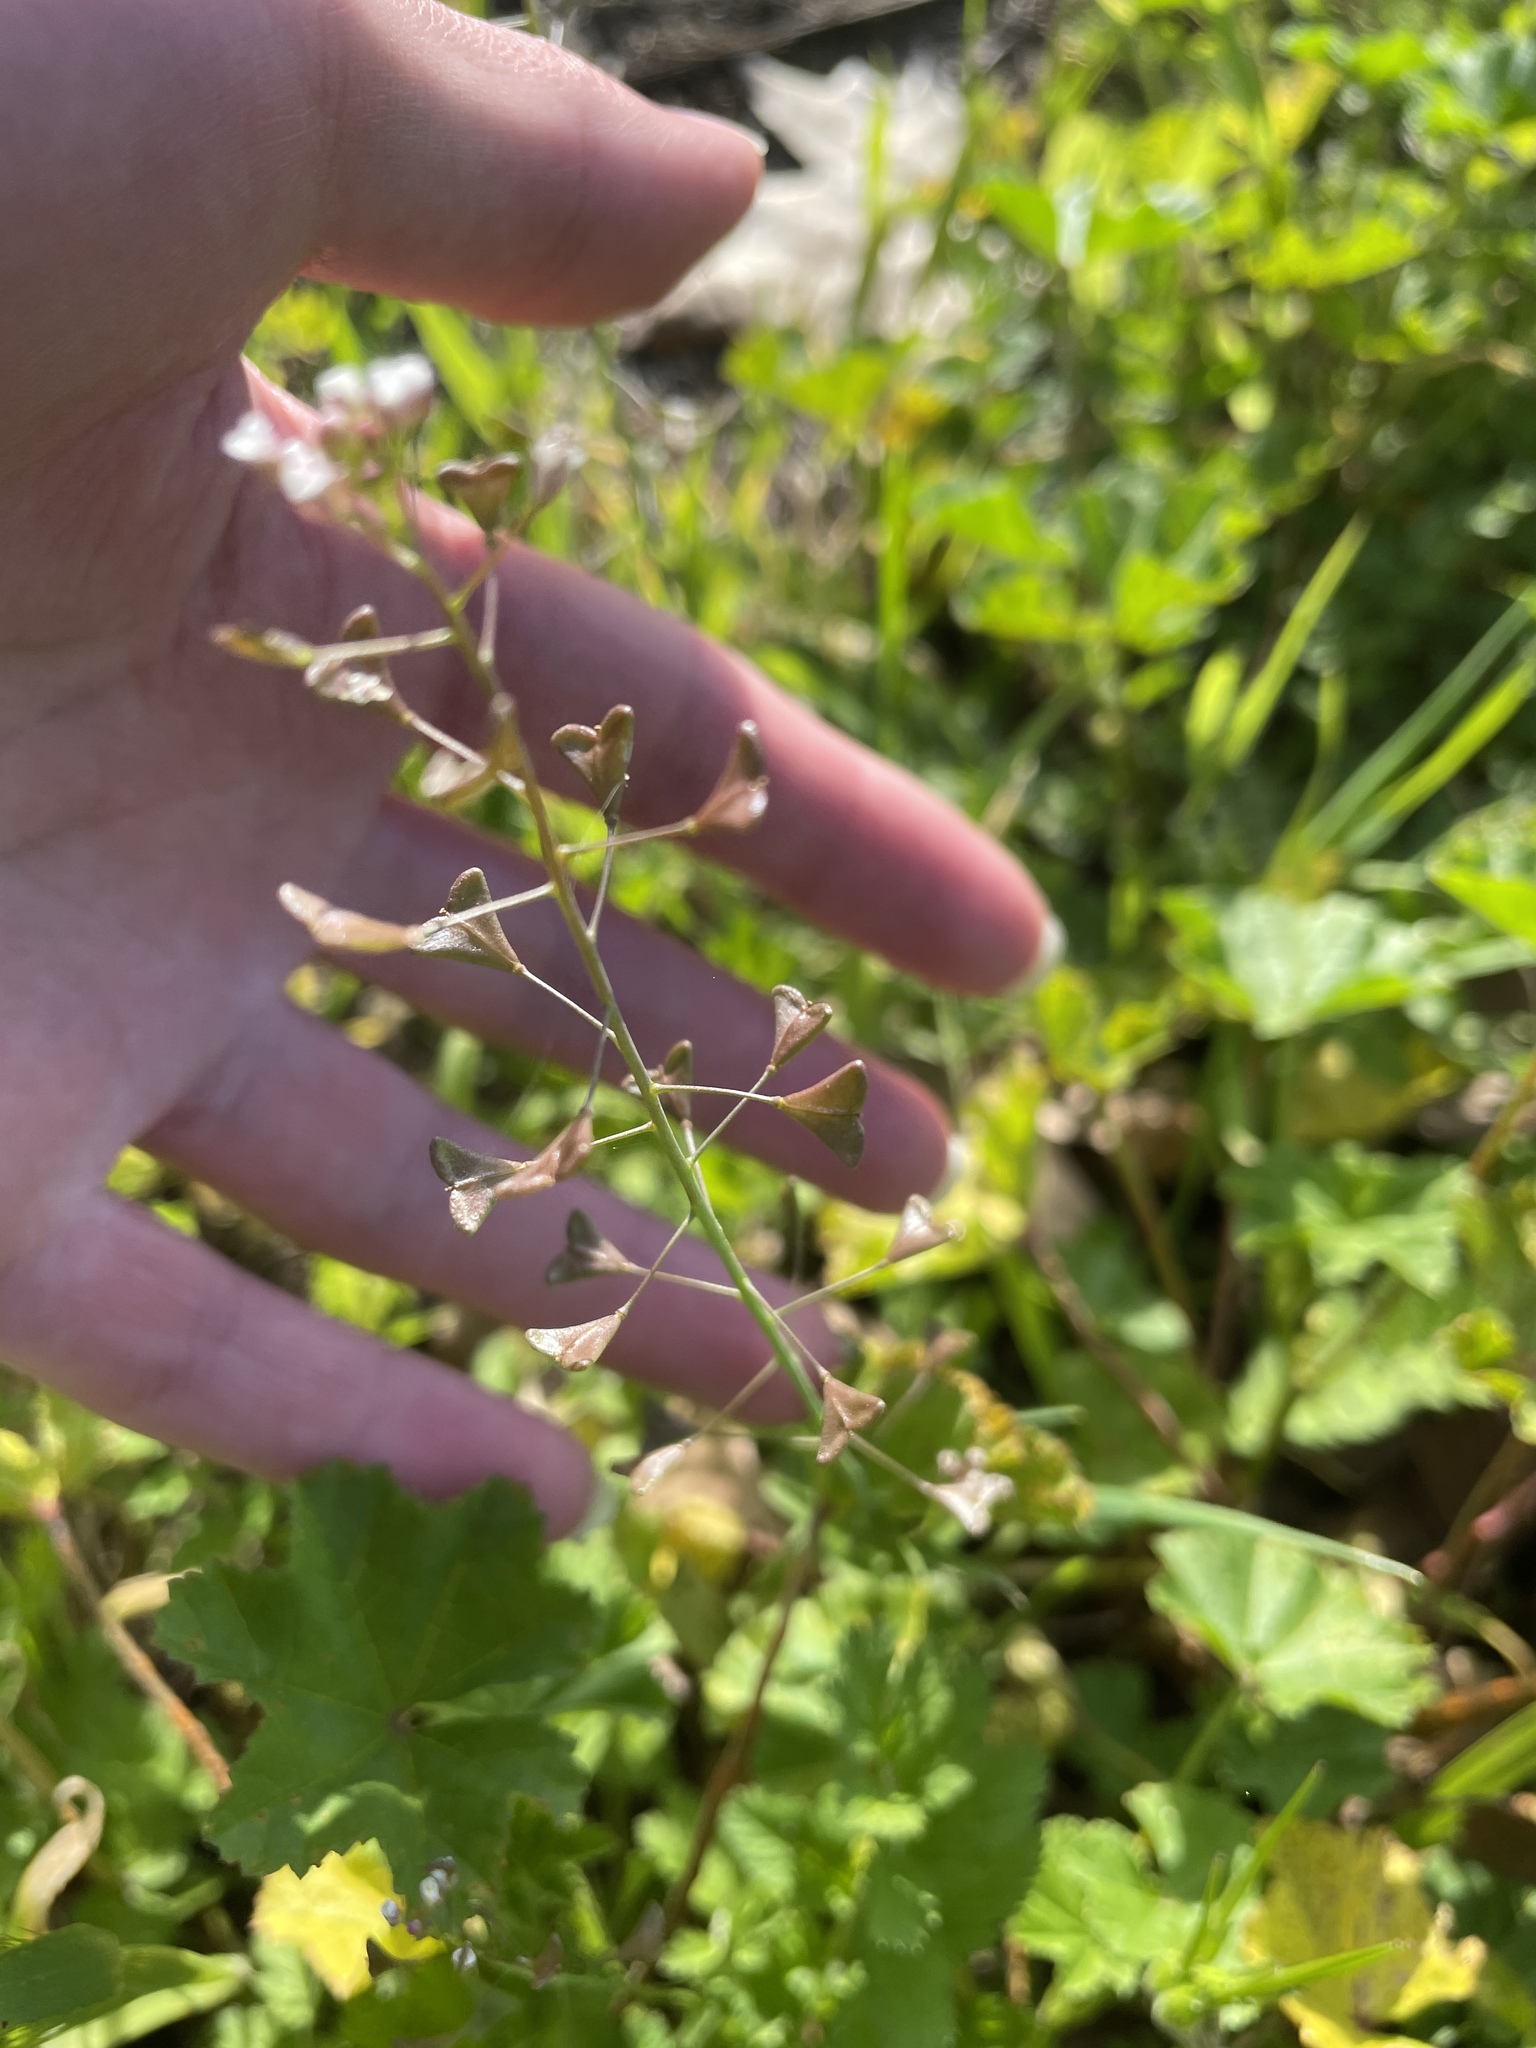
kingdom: Plantae
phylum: Tracheophyta
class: Magnoliopsida
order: Brassicales
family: Brassicaceae
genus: Capsella
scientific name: Capsella bursa-pastoris
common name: Shepherd's purse
